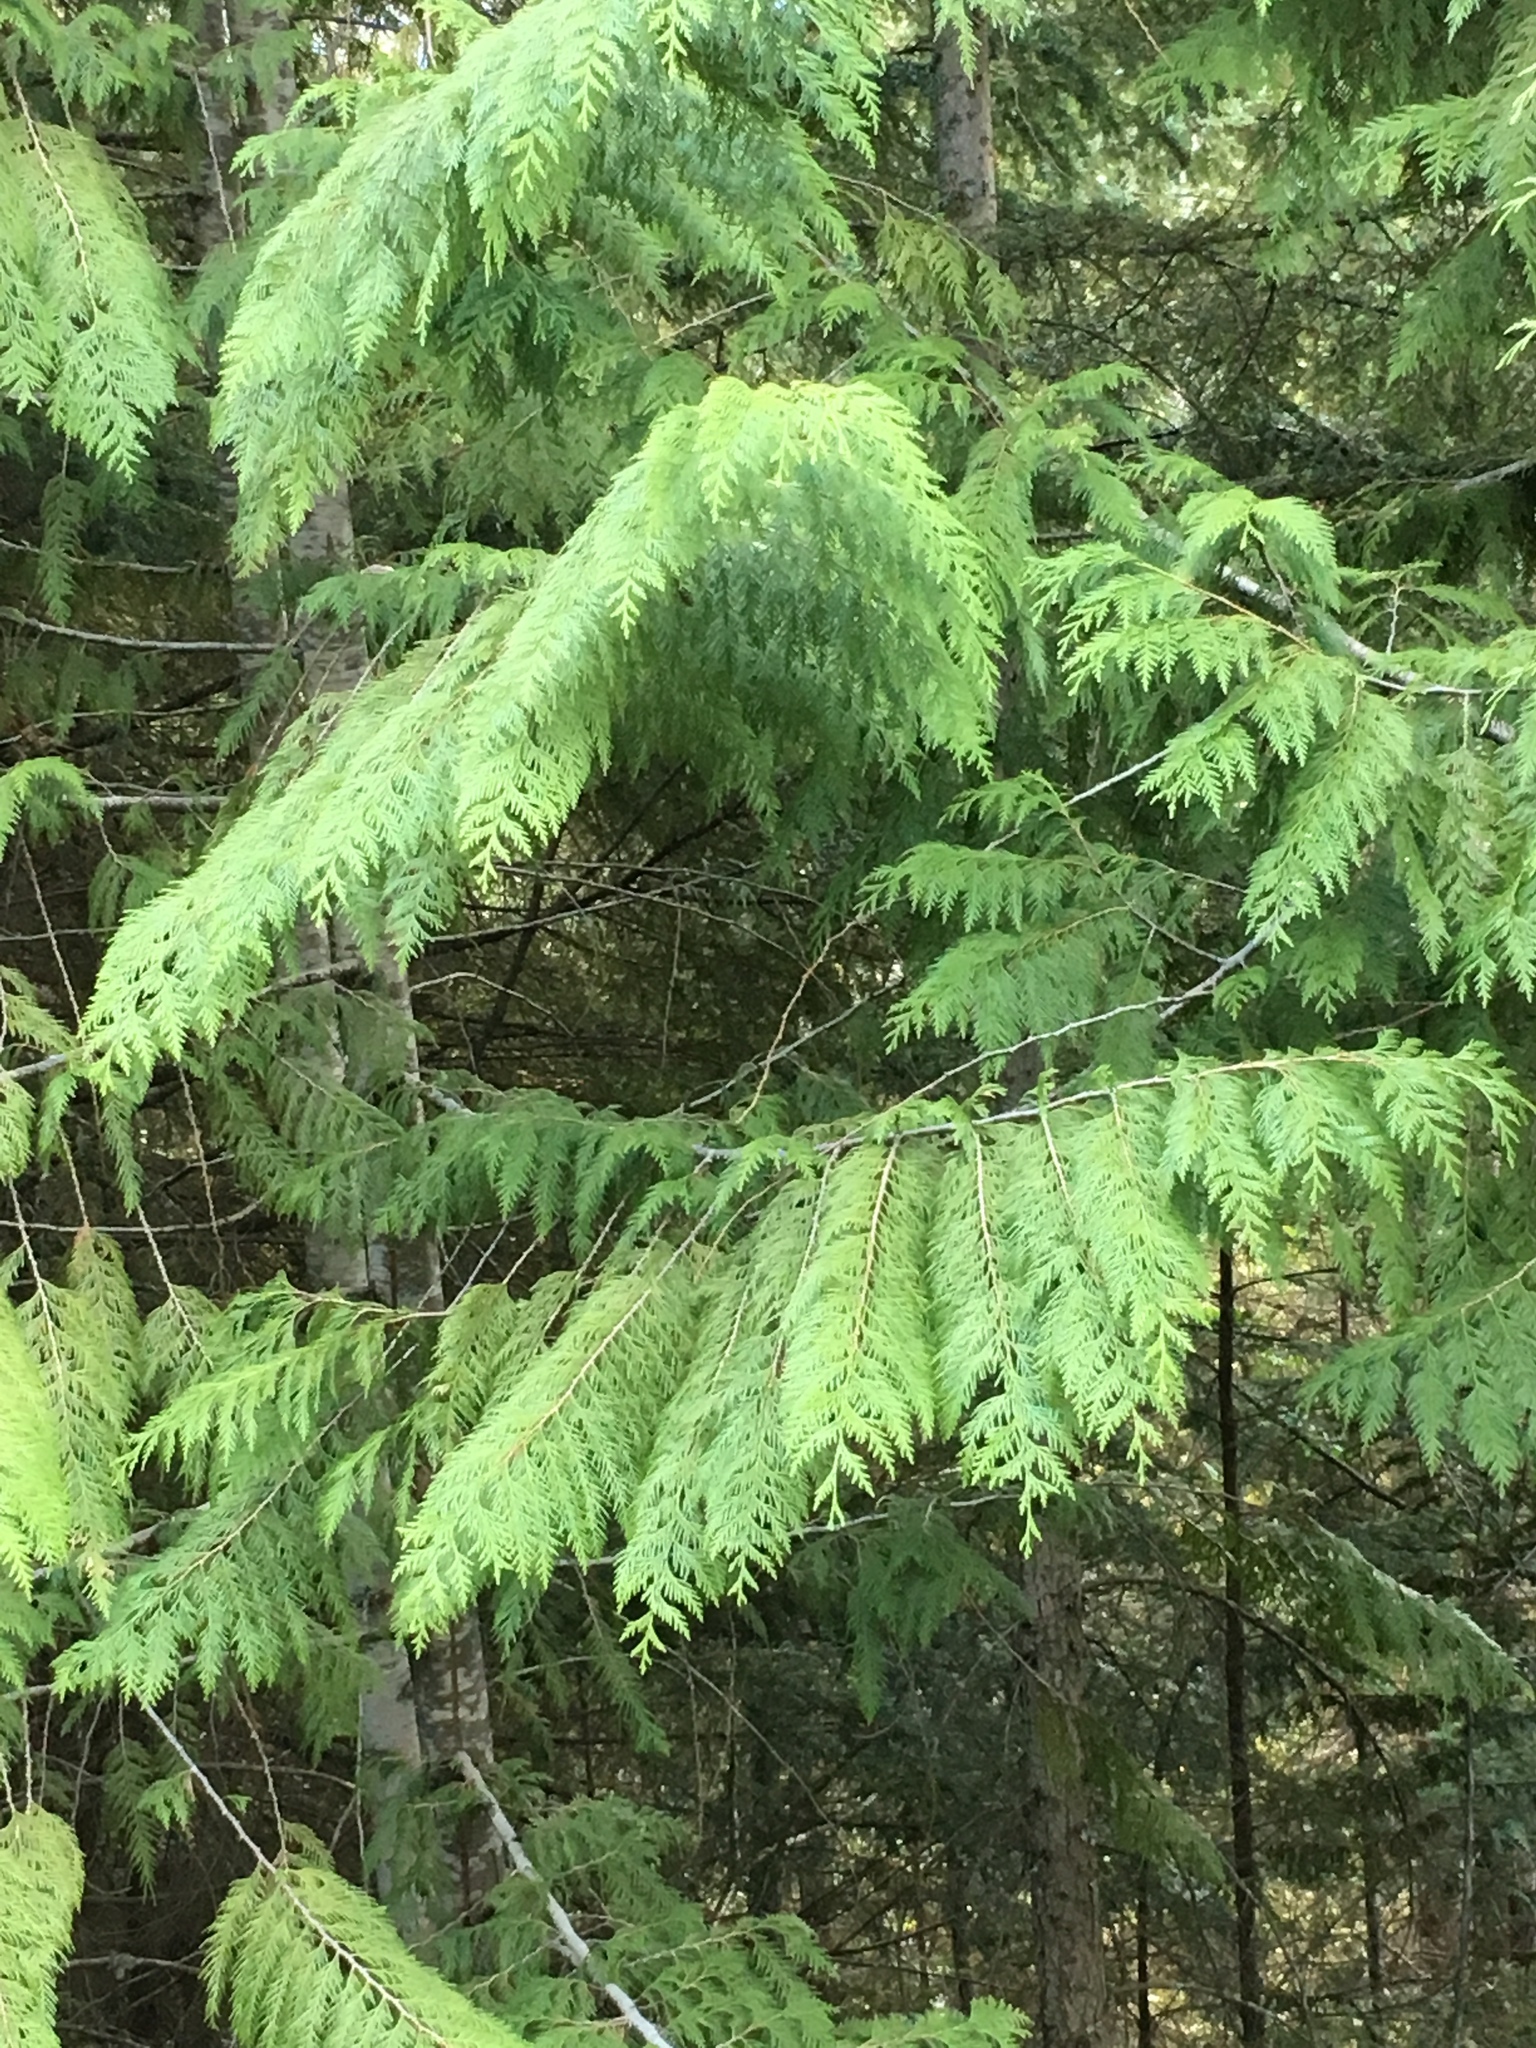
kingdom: Plantae
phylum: Tracheophyta
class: Pinopsida
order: Pinales
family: Cupressaceae
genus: Thuja
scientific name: Thuja plicata
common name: Western red-cedar
